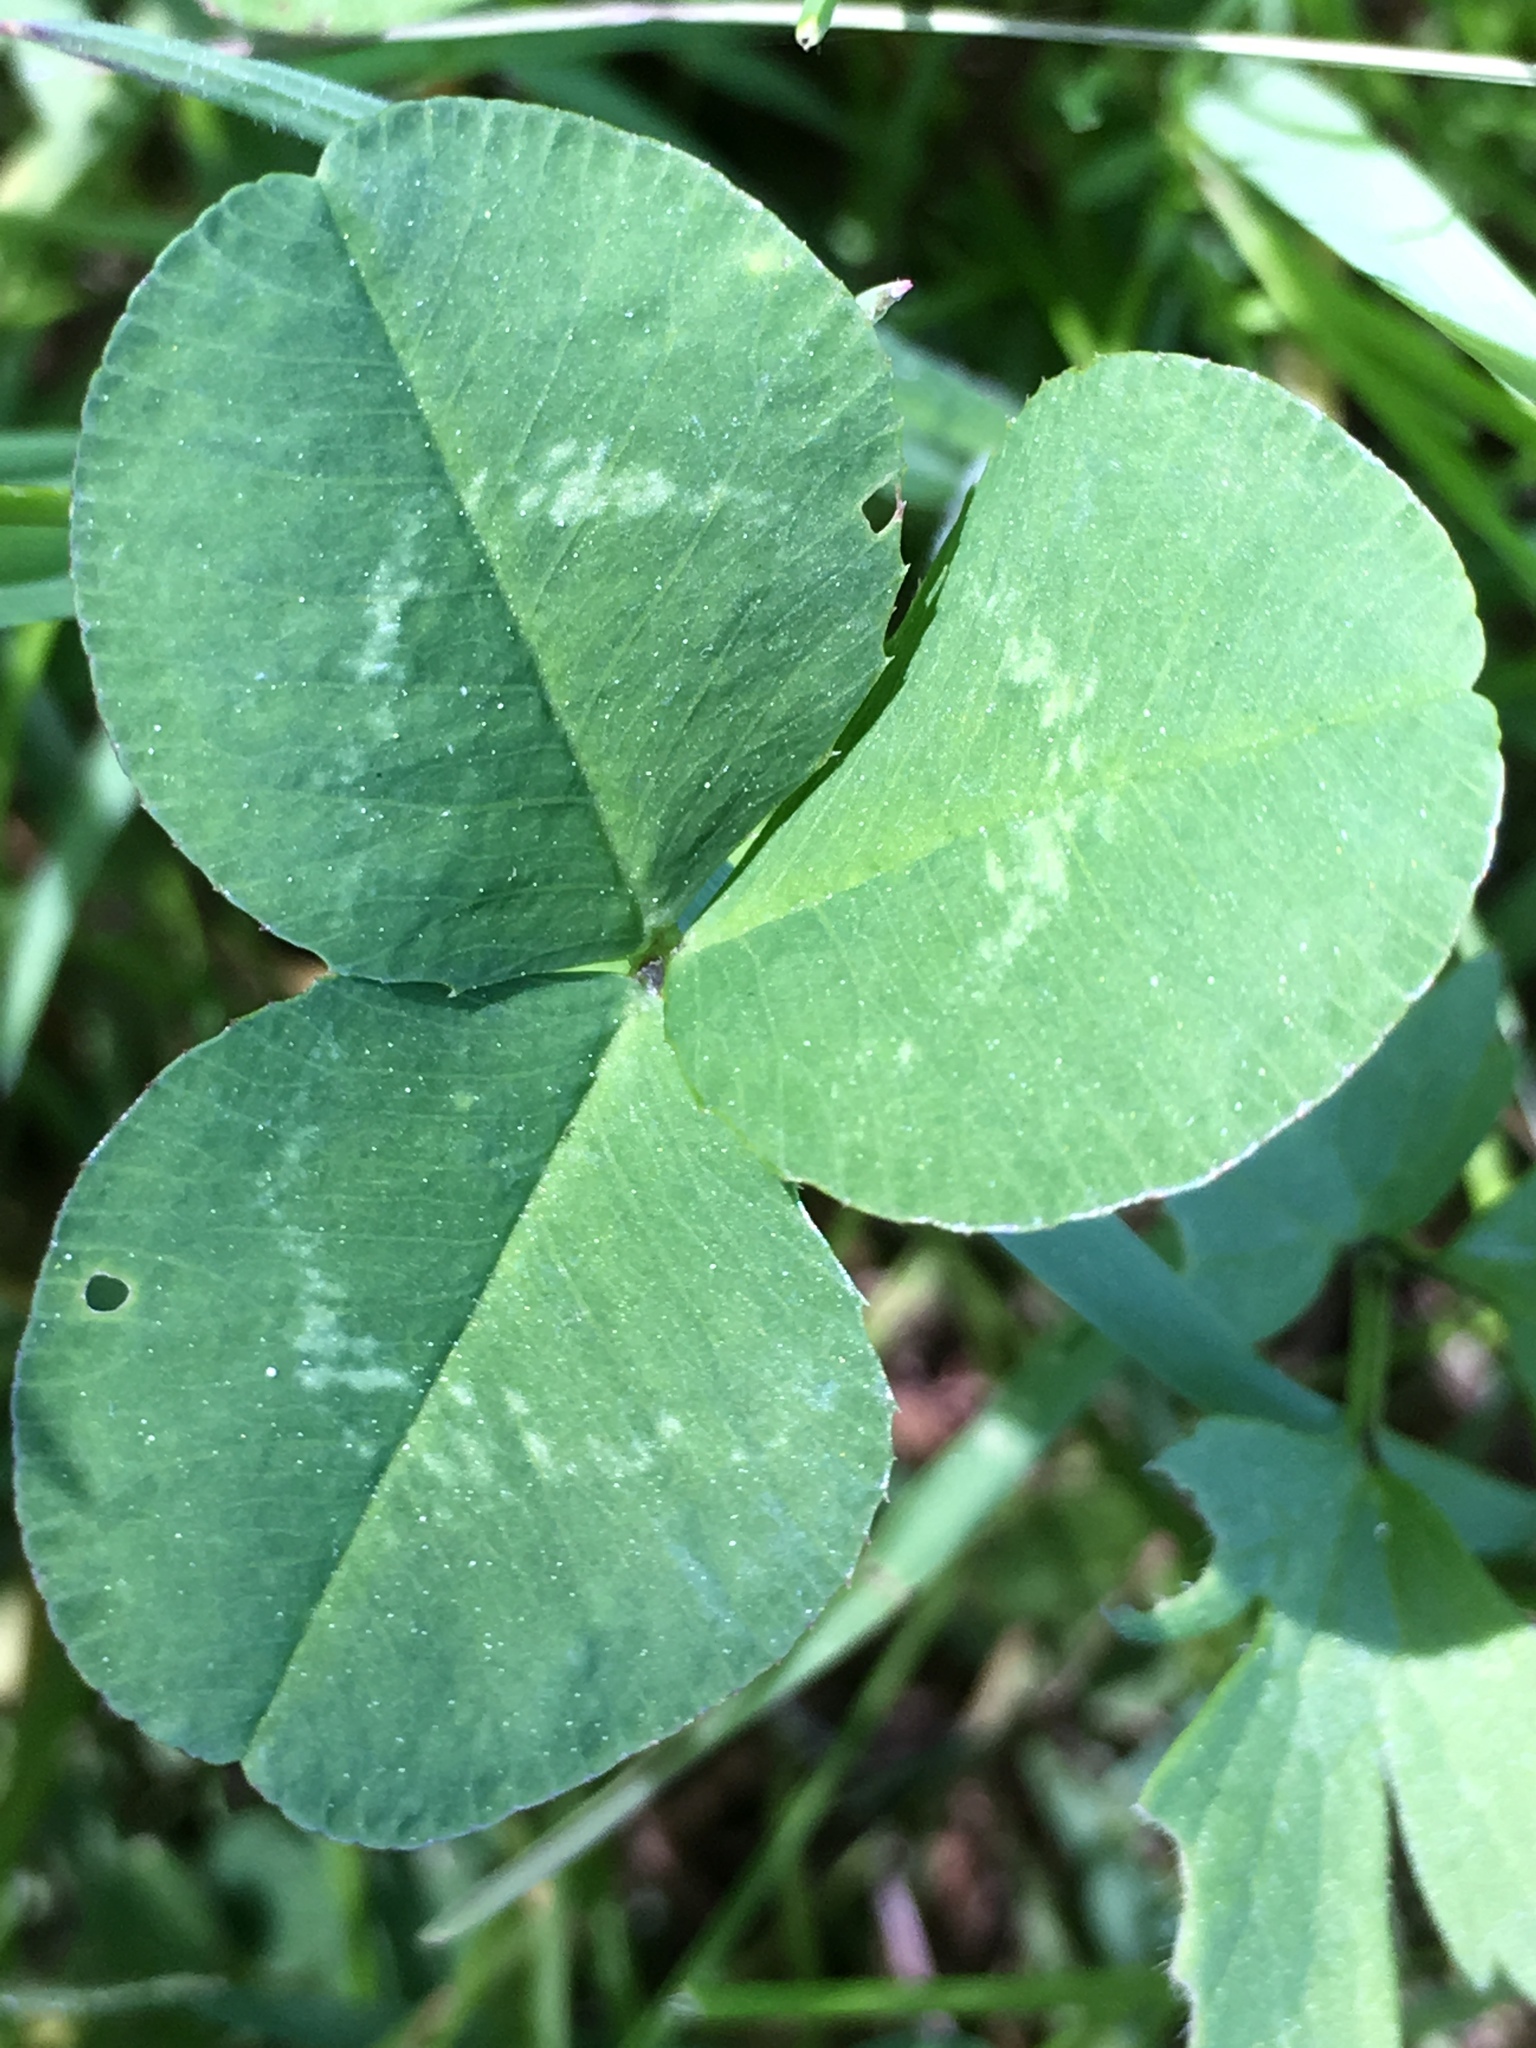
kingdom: Plantae
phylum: Tracheophyta
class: Magnoliopsida
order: Fabales
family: Fabaceae
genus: Trifolium
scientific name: Trifolium repens
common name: White clover
